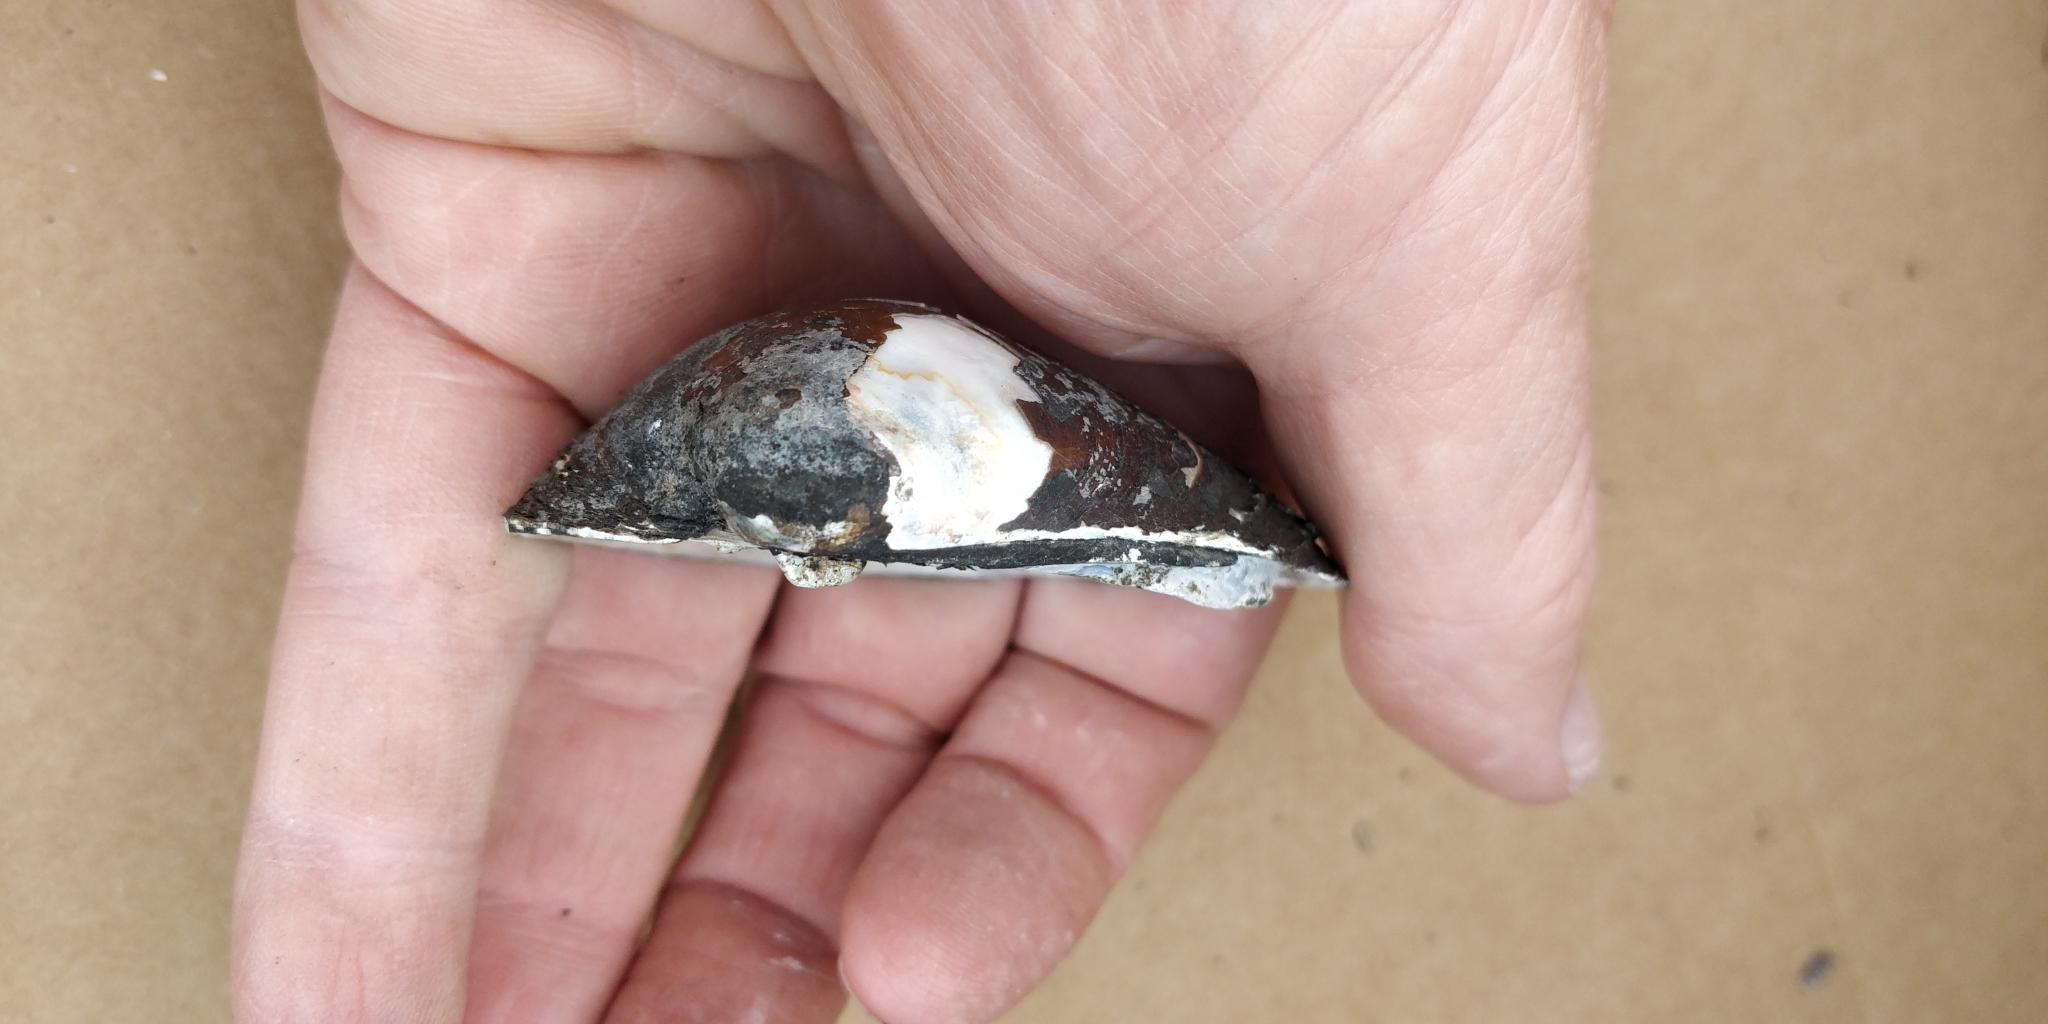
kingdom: Animalia
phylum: Mollusca
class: Bivalvia
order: Unionida
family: Unionidae
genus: Obovaria
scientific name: Obovaria olivaria
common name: Hickorynut
